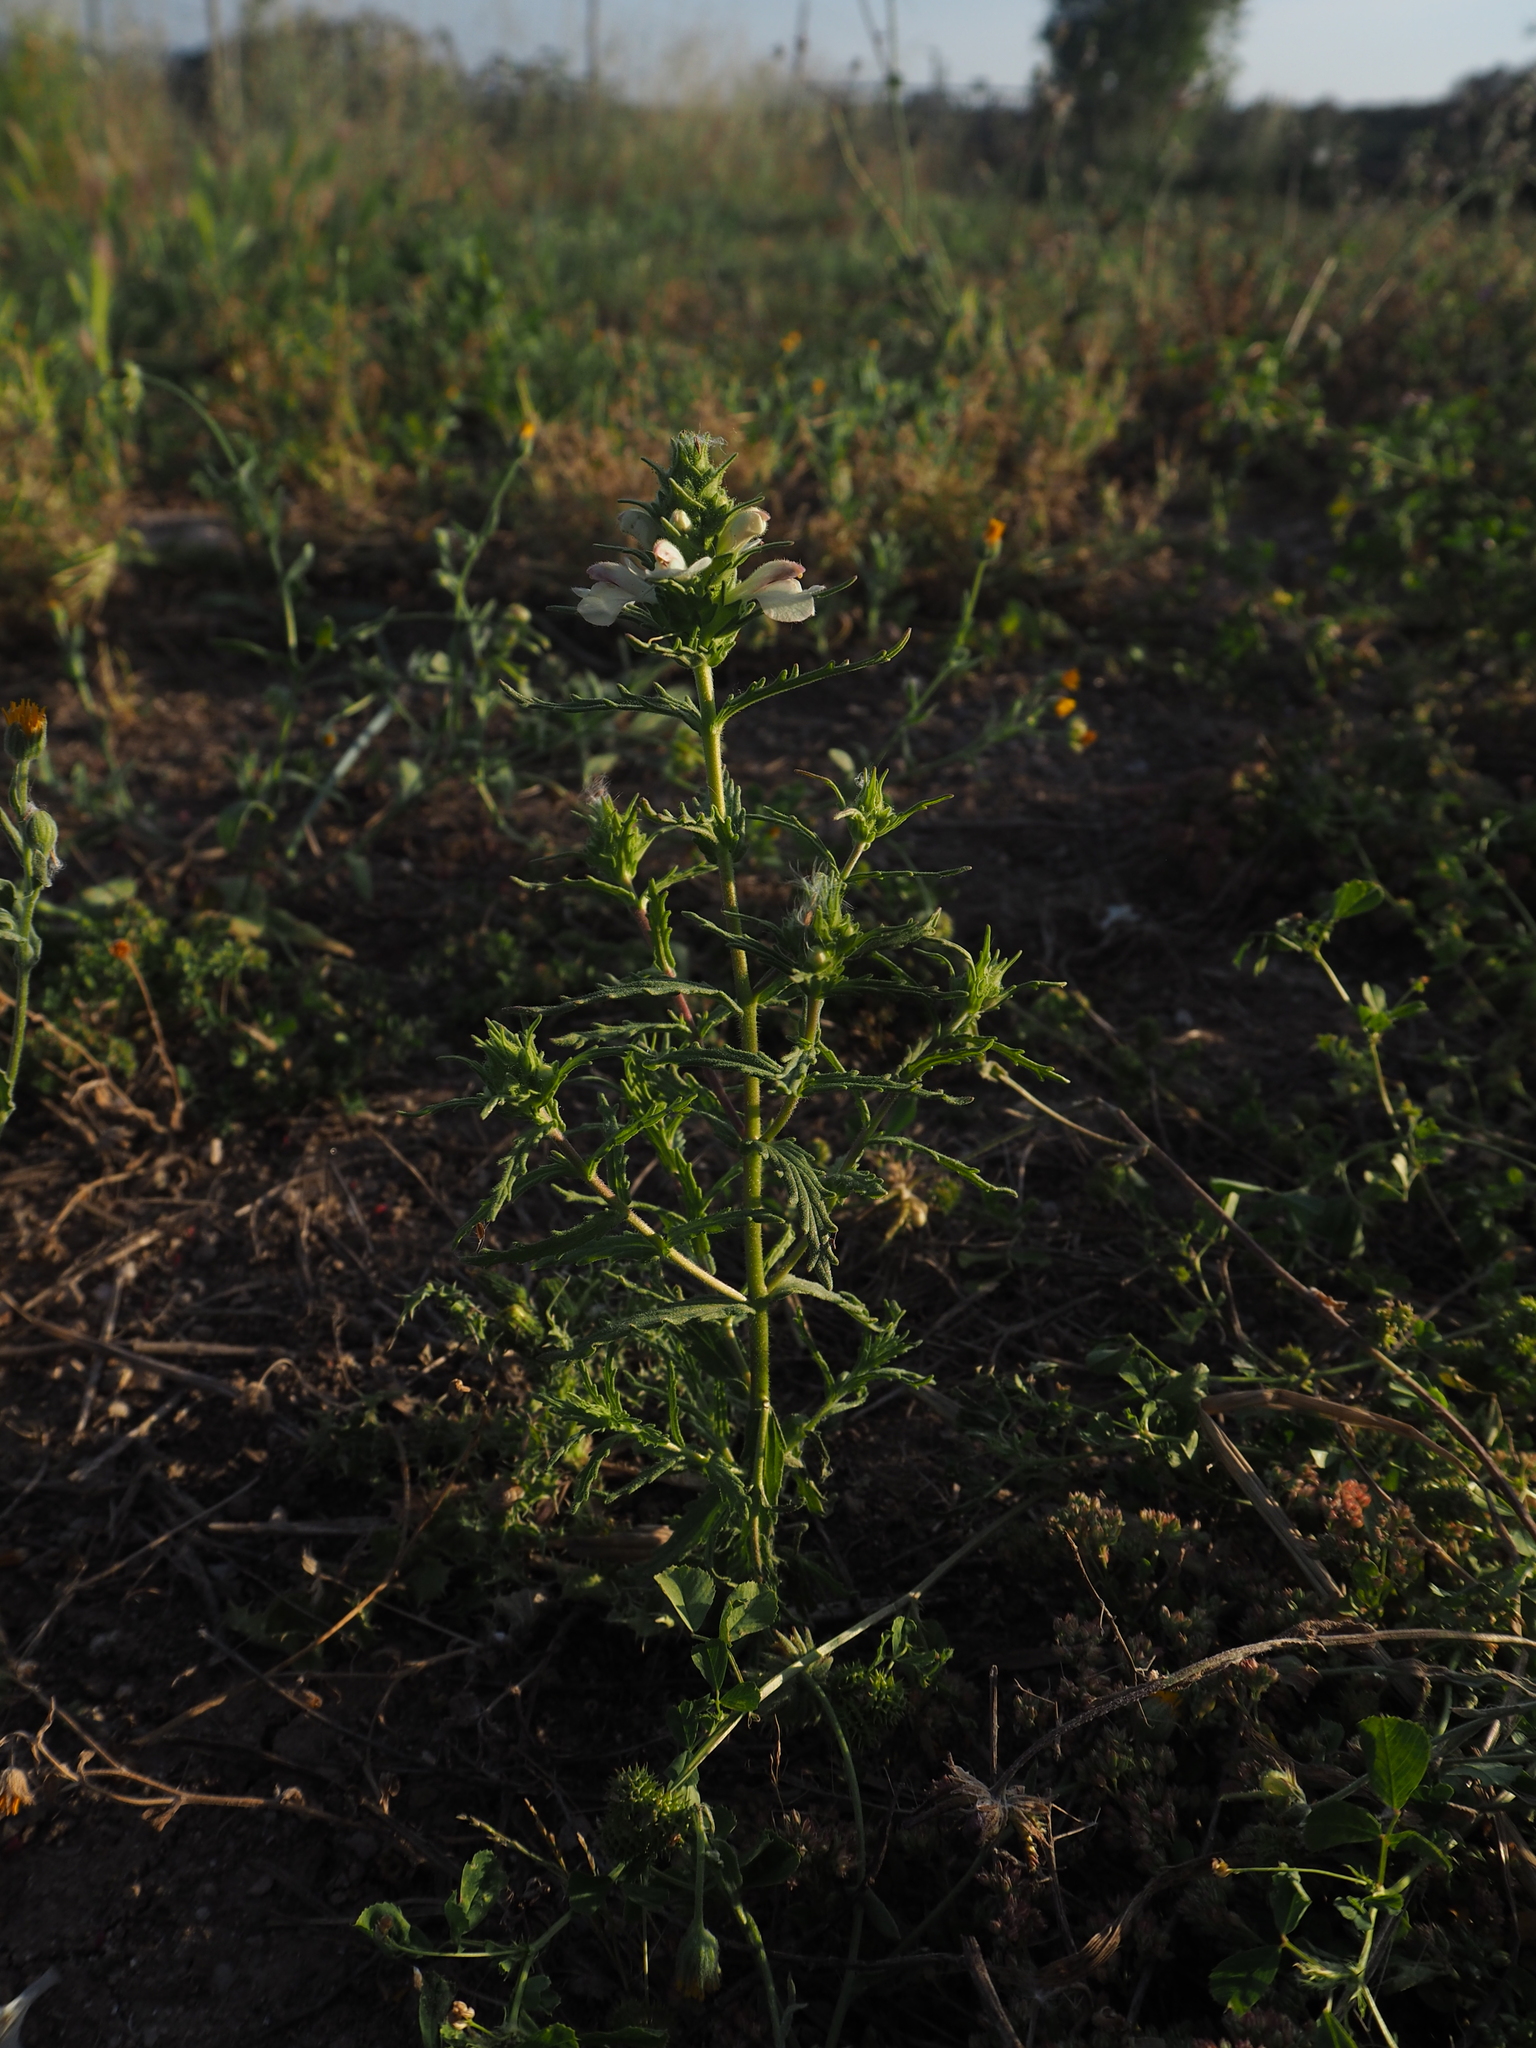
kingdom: Plantae
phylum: Tracheophyta
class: Magnoliopsida
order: Lamiales
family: Orobanchaceae
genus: Bellardia
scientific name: Bellardia trixago
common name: Mediterranean lineseed
